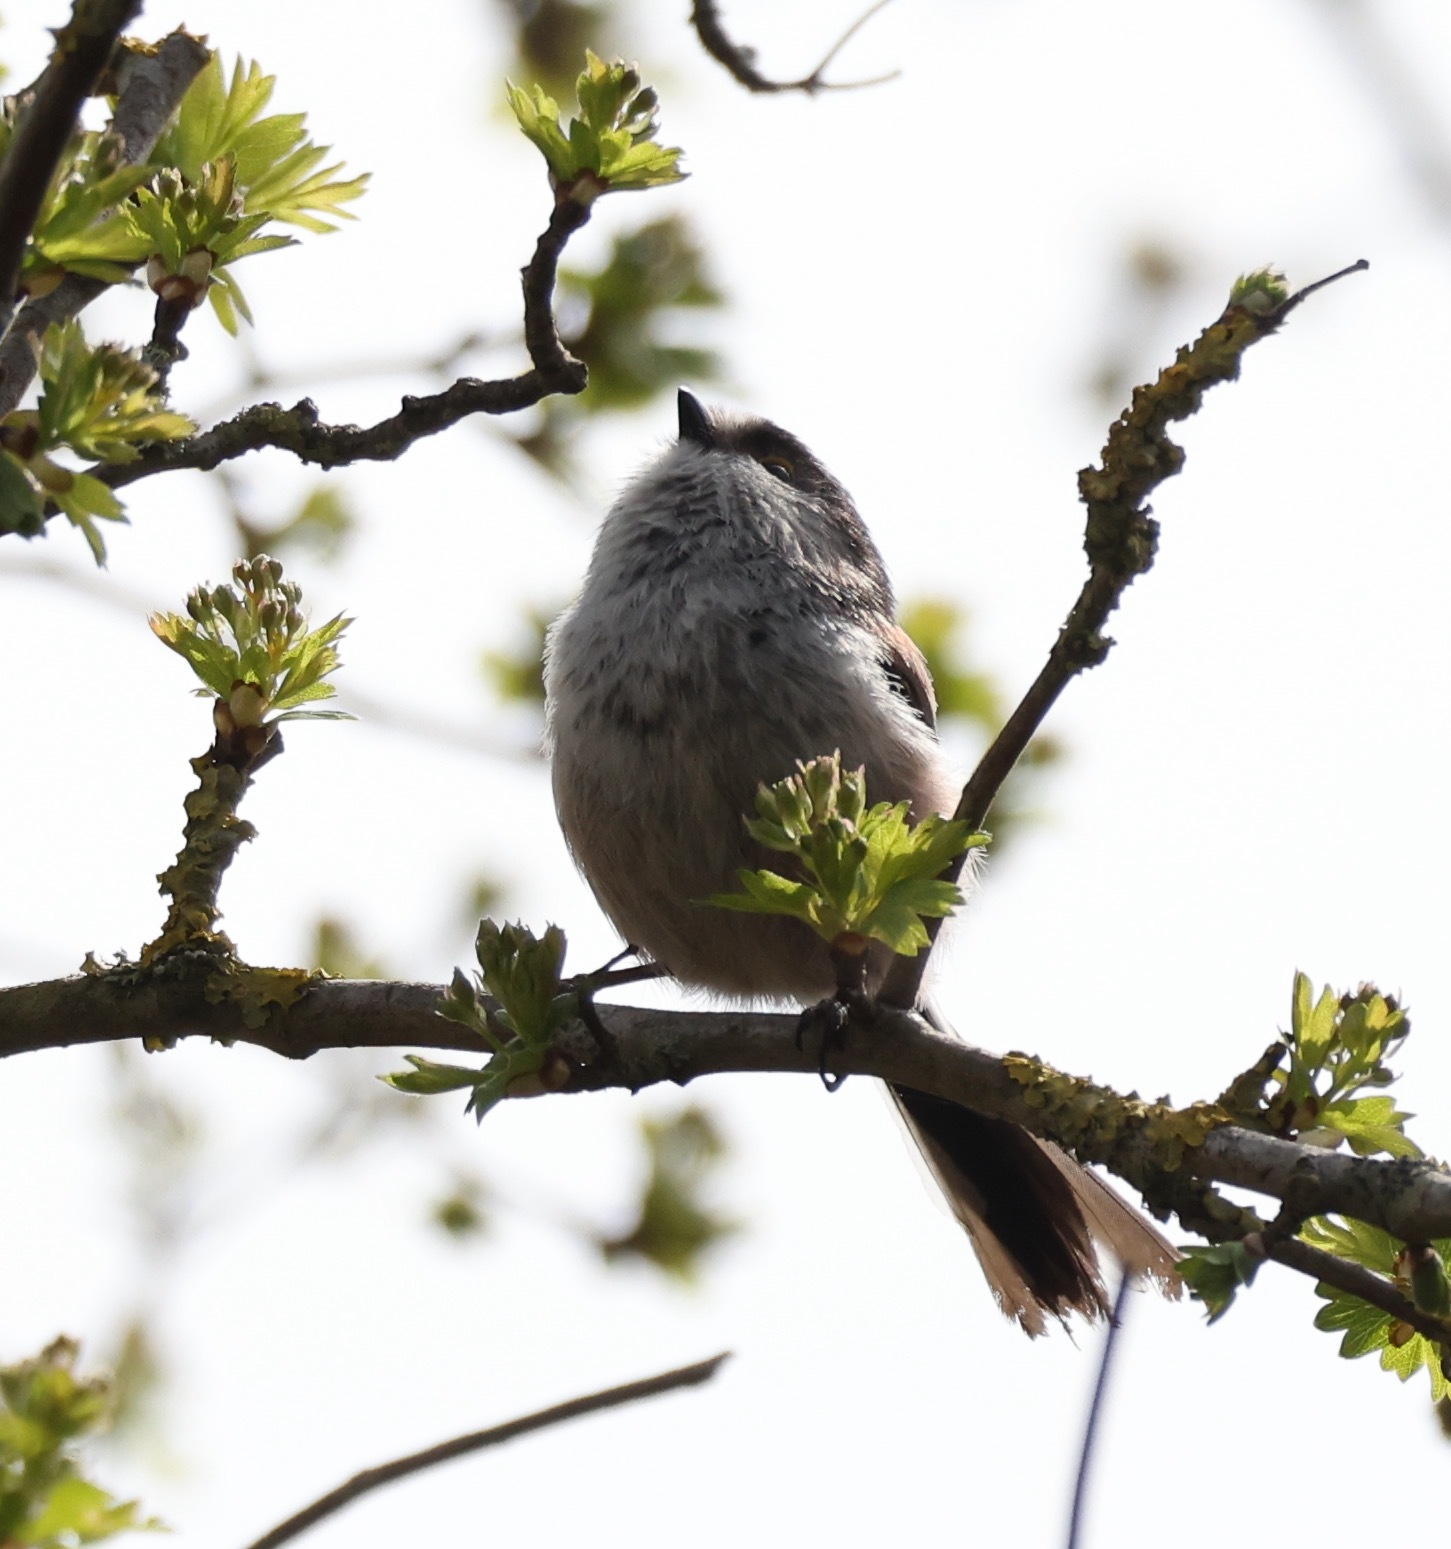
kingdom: Animalia
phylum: Chordata
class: Aves
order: Passeriformes
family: Aegithalidae
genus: Aegithalos
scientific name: Aegithalos caudatus
